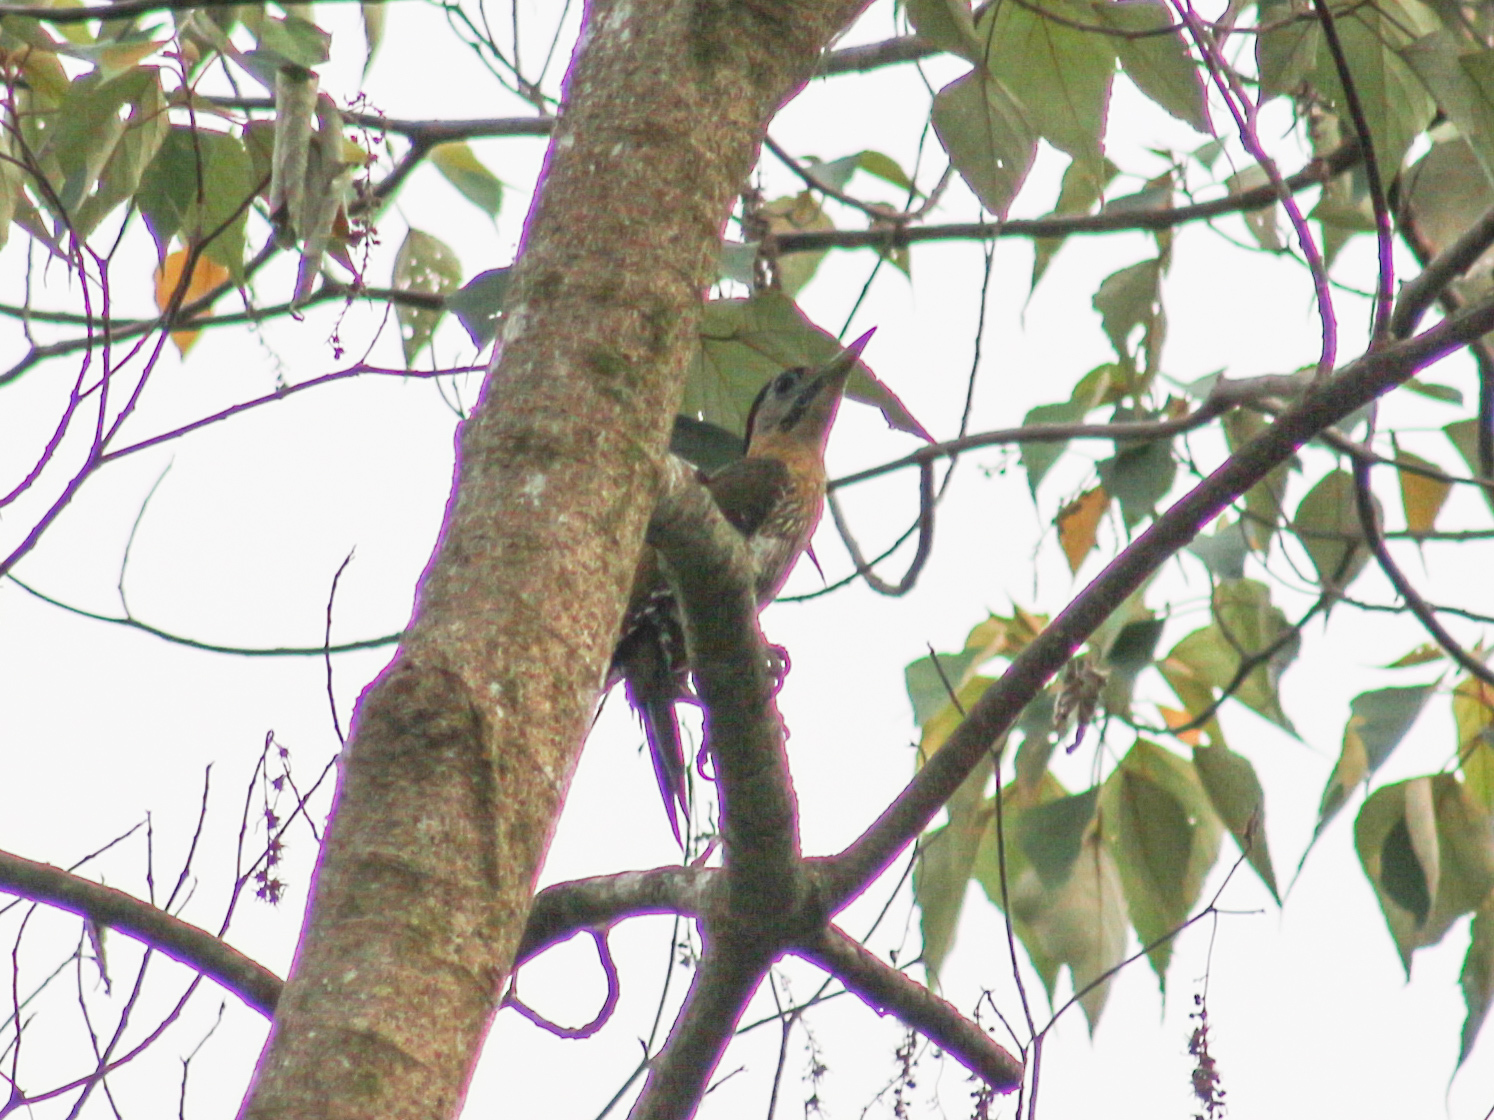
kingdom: Animalia
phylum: Chordata
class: Aves
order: Piciformes
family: Picidae
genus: Picus
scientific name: Picus vittatus
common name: Laced woodpecker
